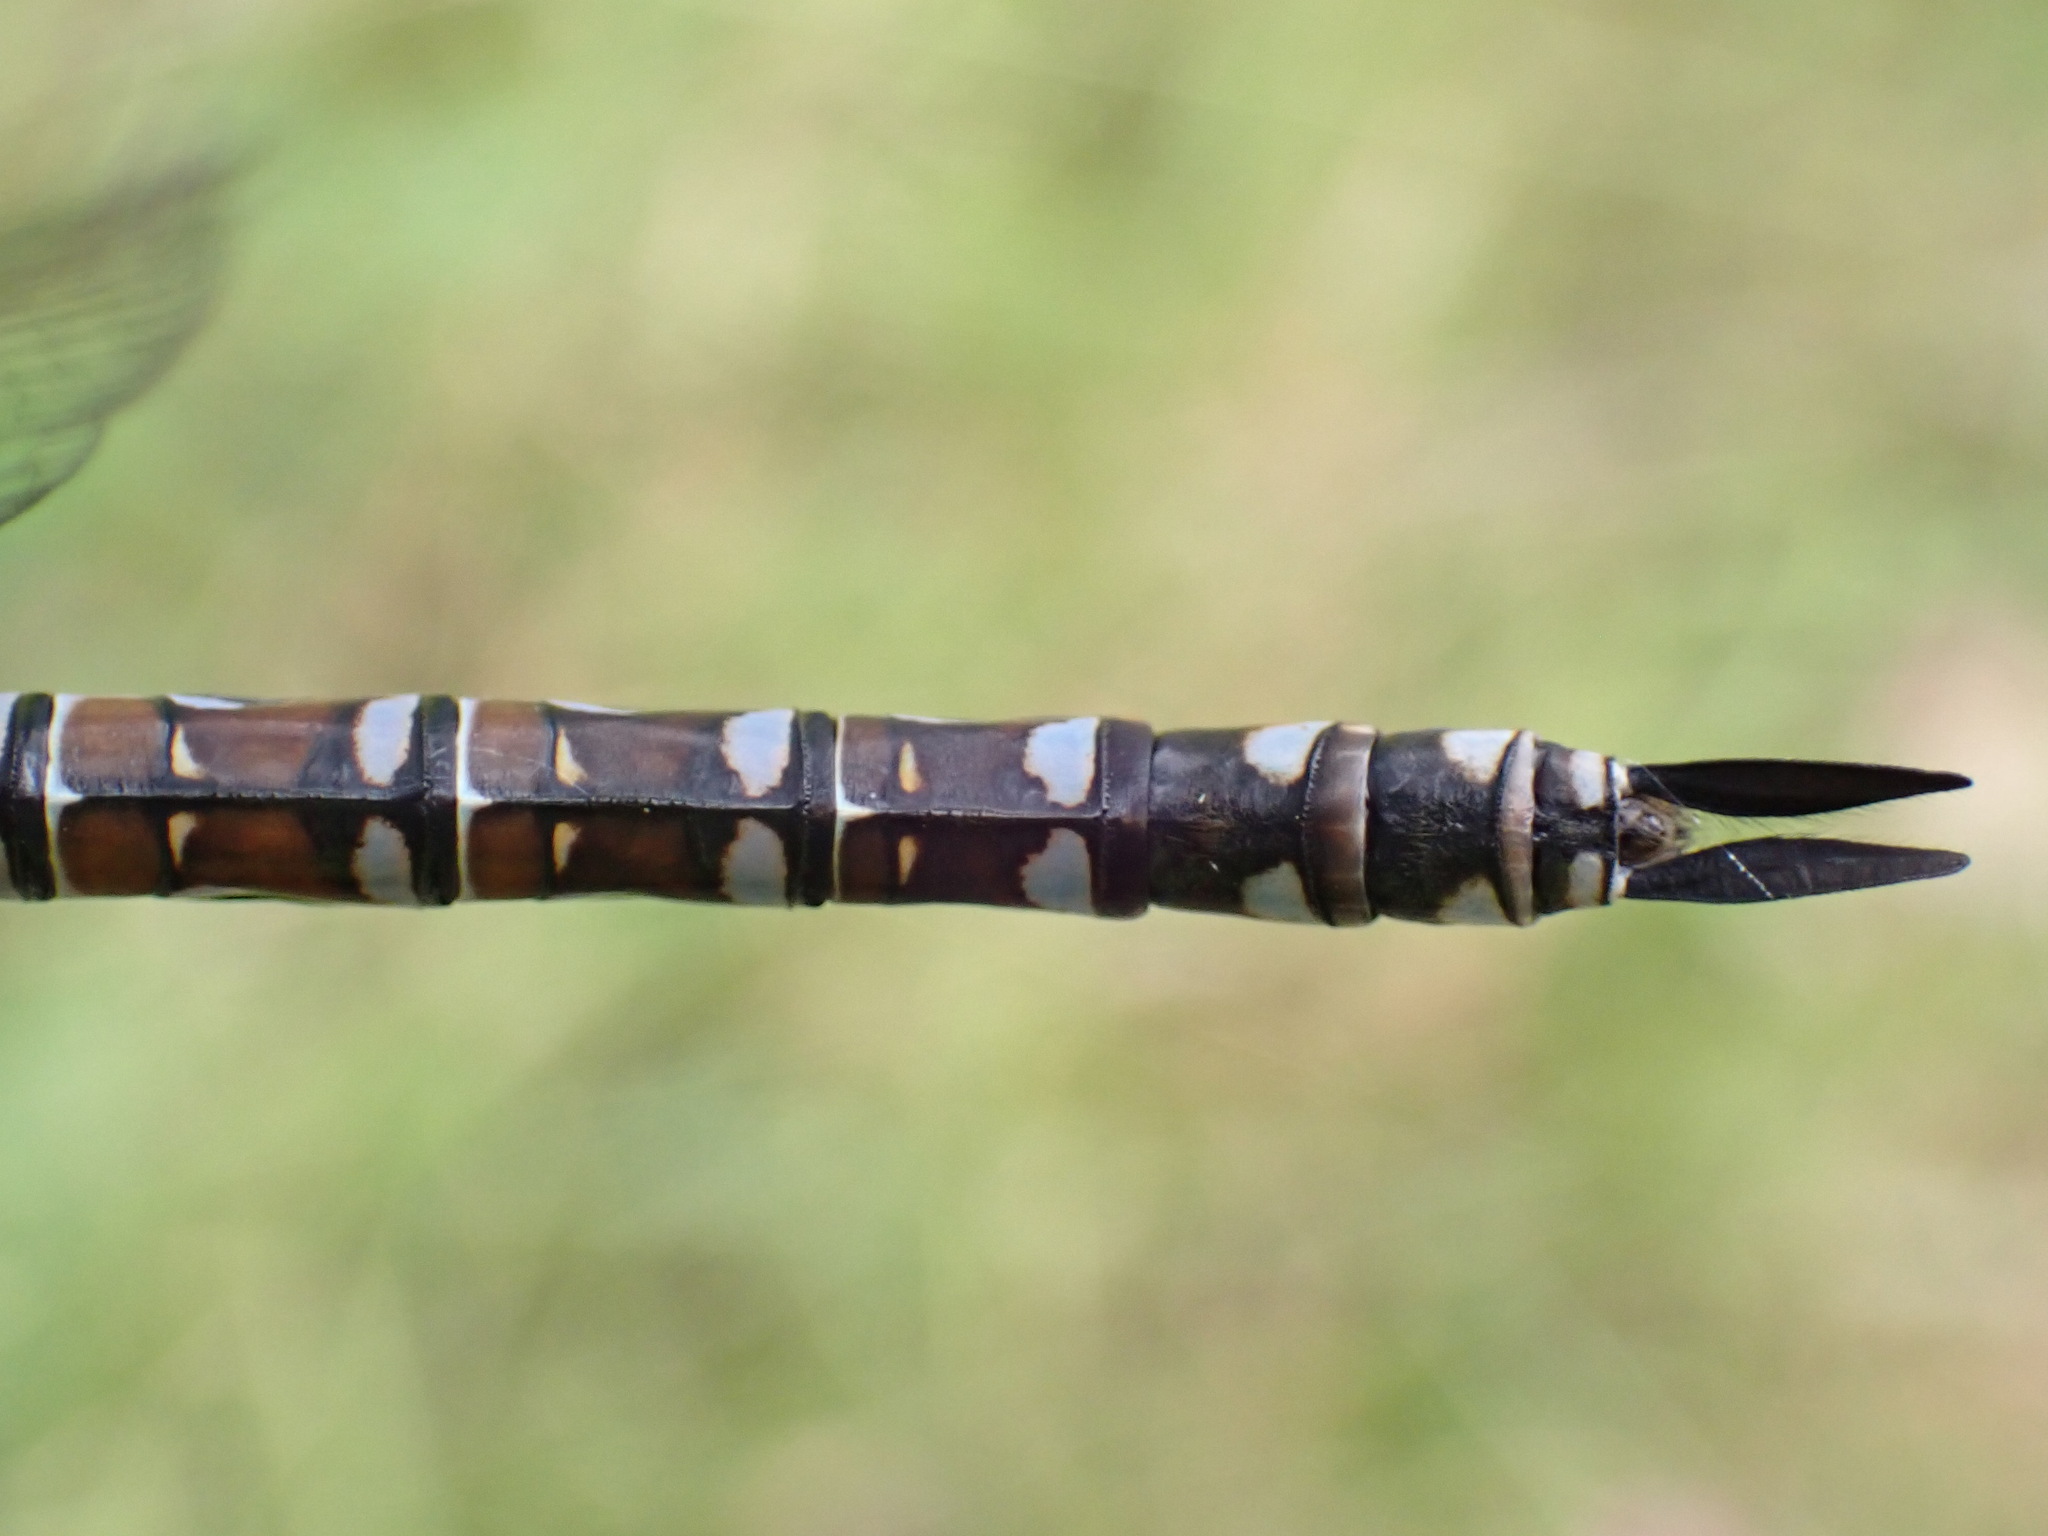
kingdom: Animalia
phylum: Arthropoda
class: Insecta
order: Odonata
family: Aeshnidae
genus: Aeshna
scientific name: Aeshna interrupta
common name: Variable darner
